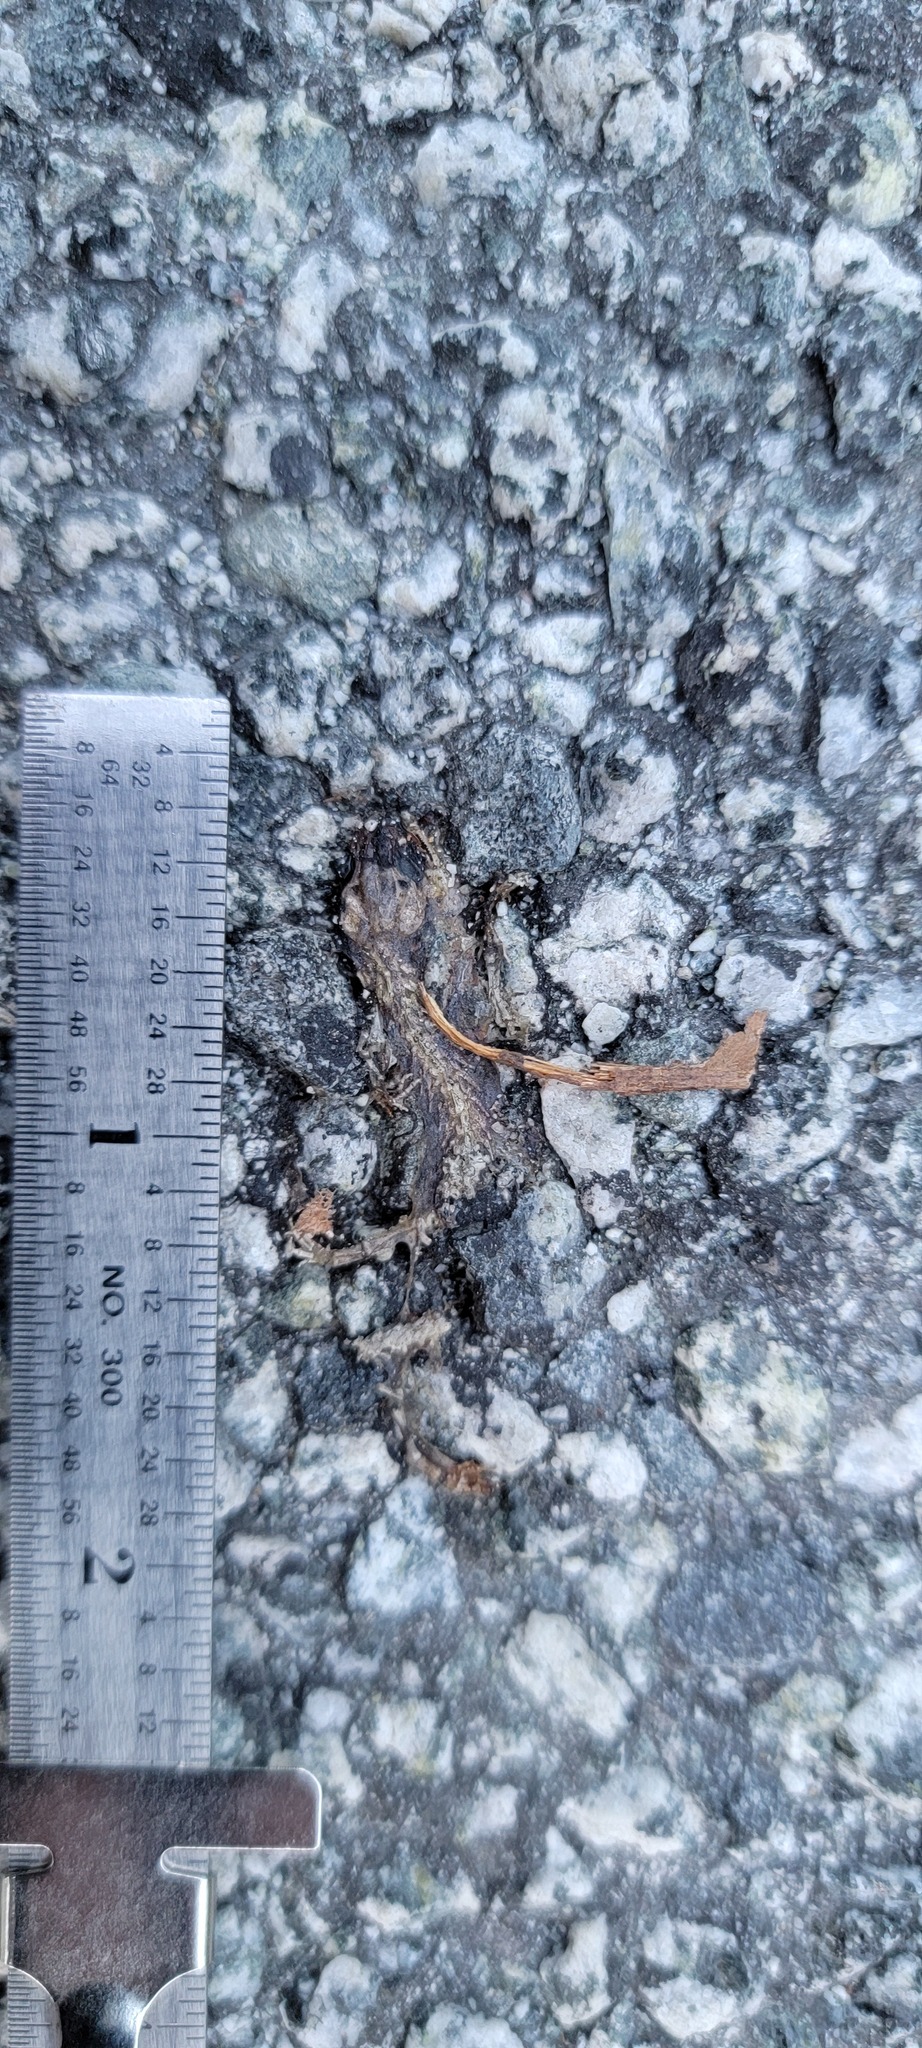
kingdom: Animalia
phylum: Chordata
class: Amphibia
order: Caudata
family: Salamandridae
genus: Taricha
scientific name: Taricha
